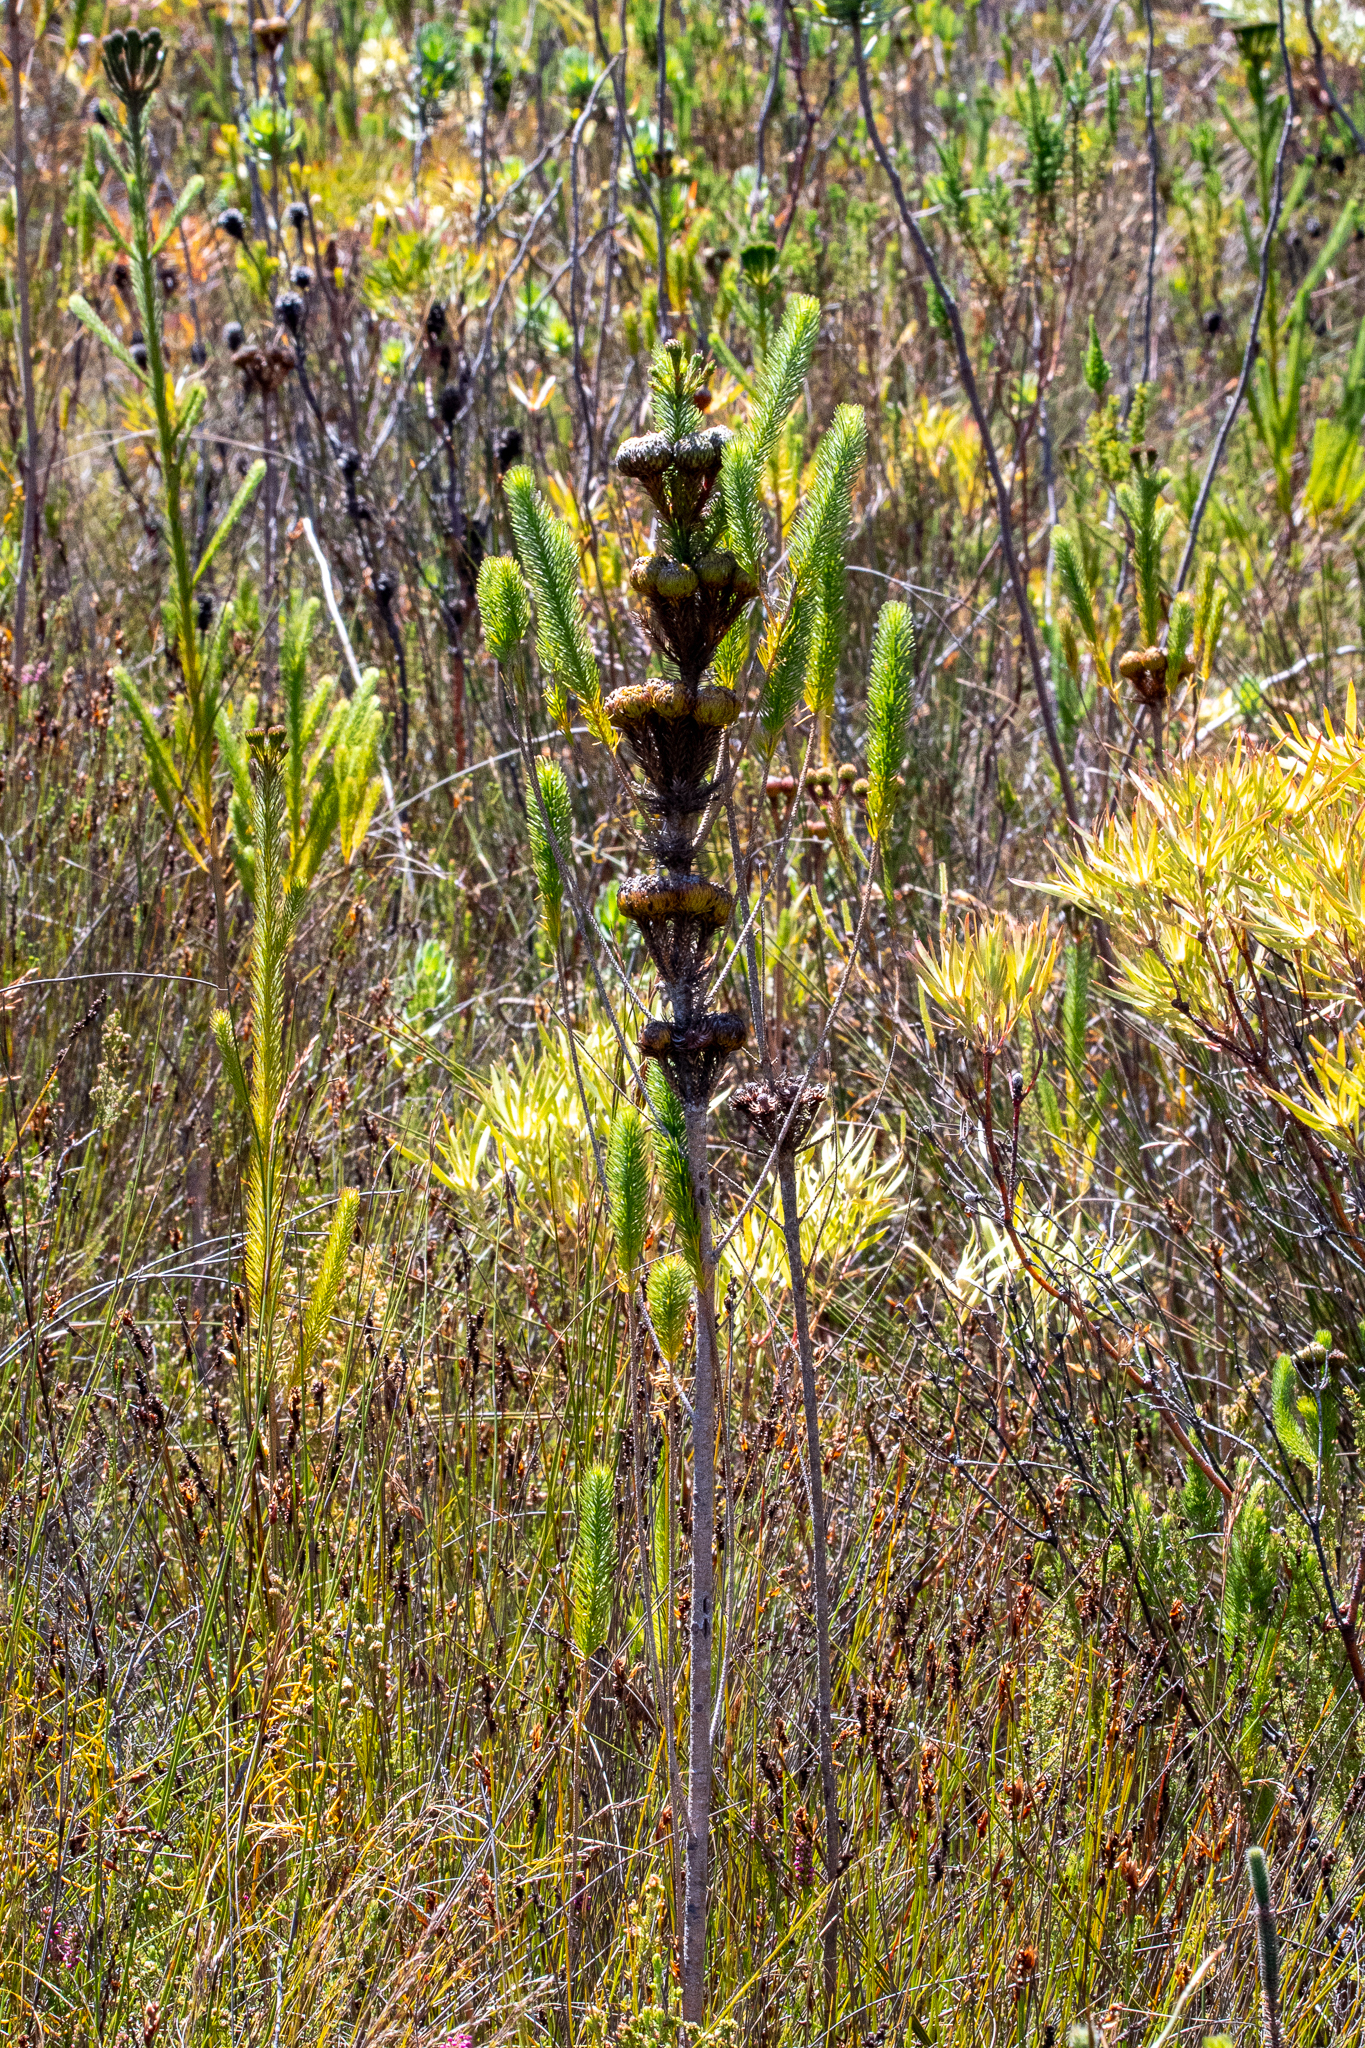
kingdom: Plantae
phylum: Tracheophyta
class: Magnoliopsida
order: Bruniales
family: Bruniaceae
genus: Berzelia
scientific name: Berzelia albiflora
